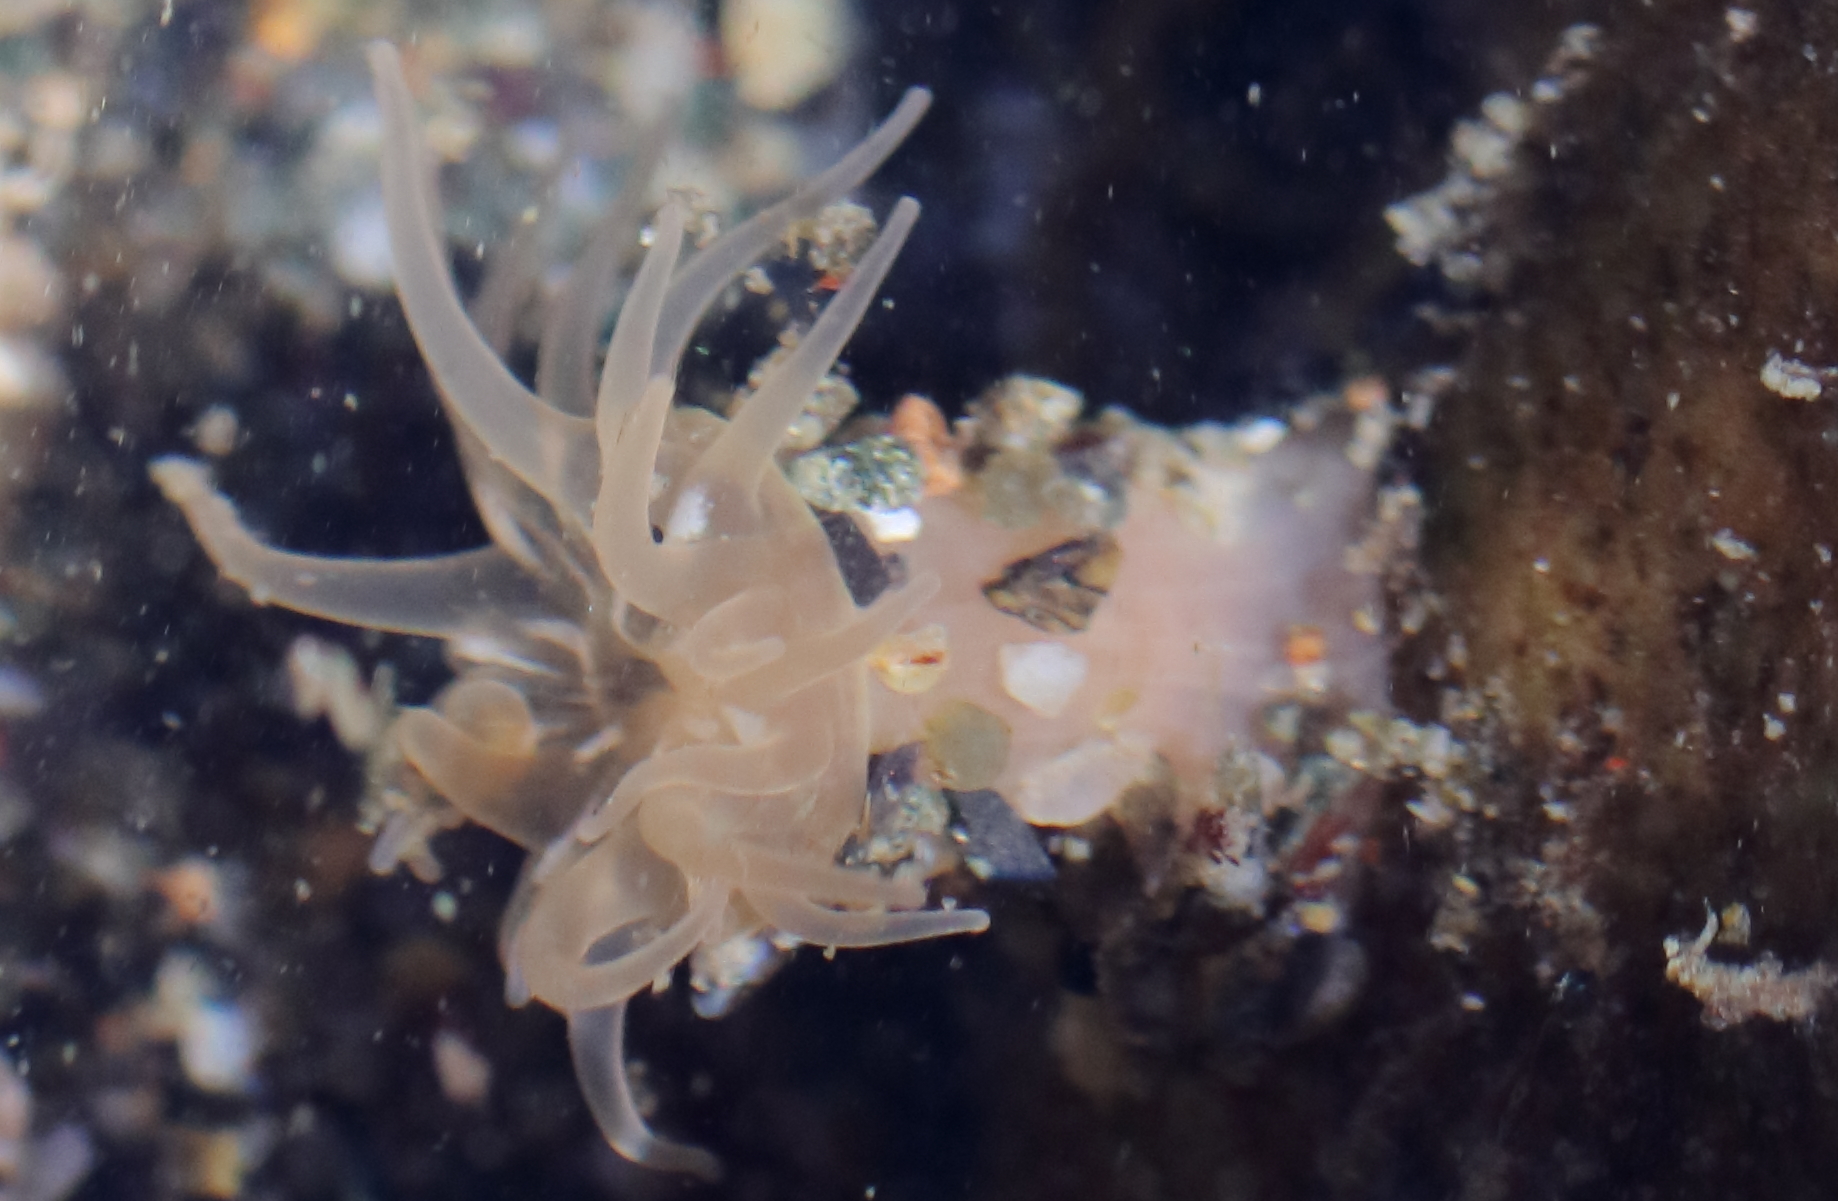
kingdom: Animalia
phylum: Cnidaria
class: Anthozoa
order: Actiniaria
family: Actiniidae
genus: Aulactinia
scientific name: Aulactinia incubans
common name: Incubating anemone
